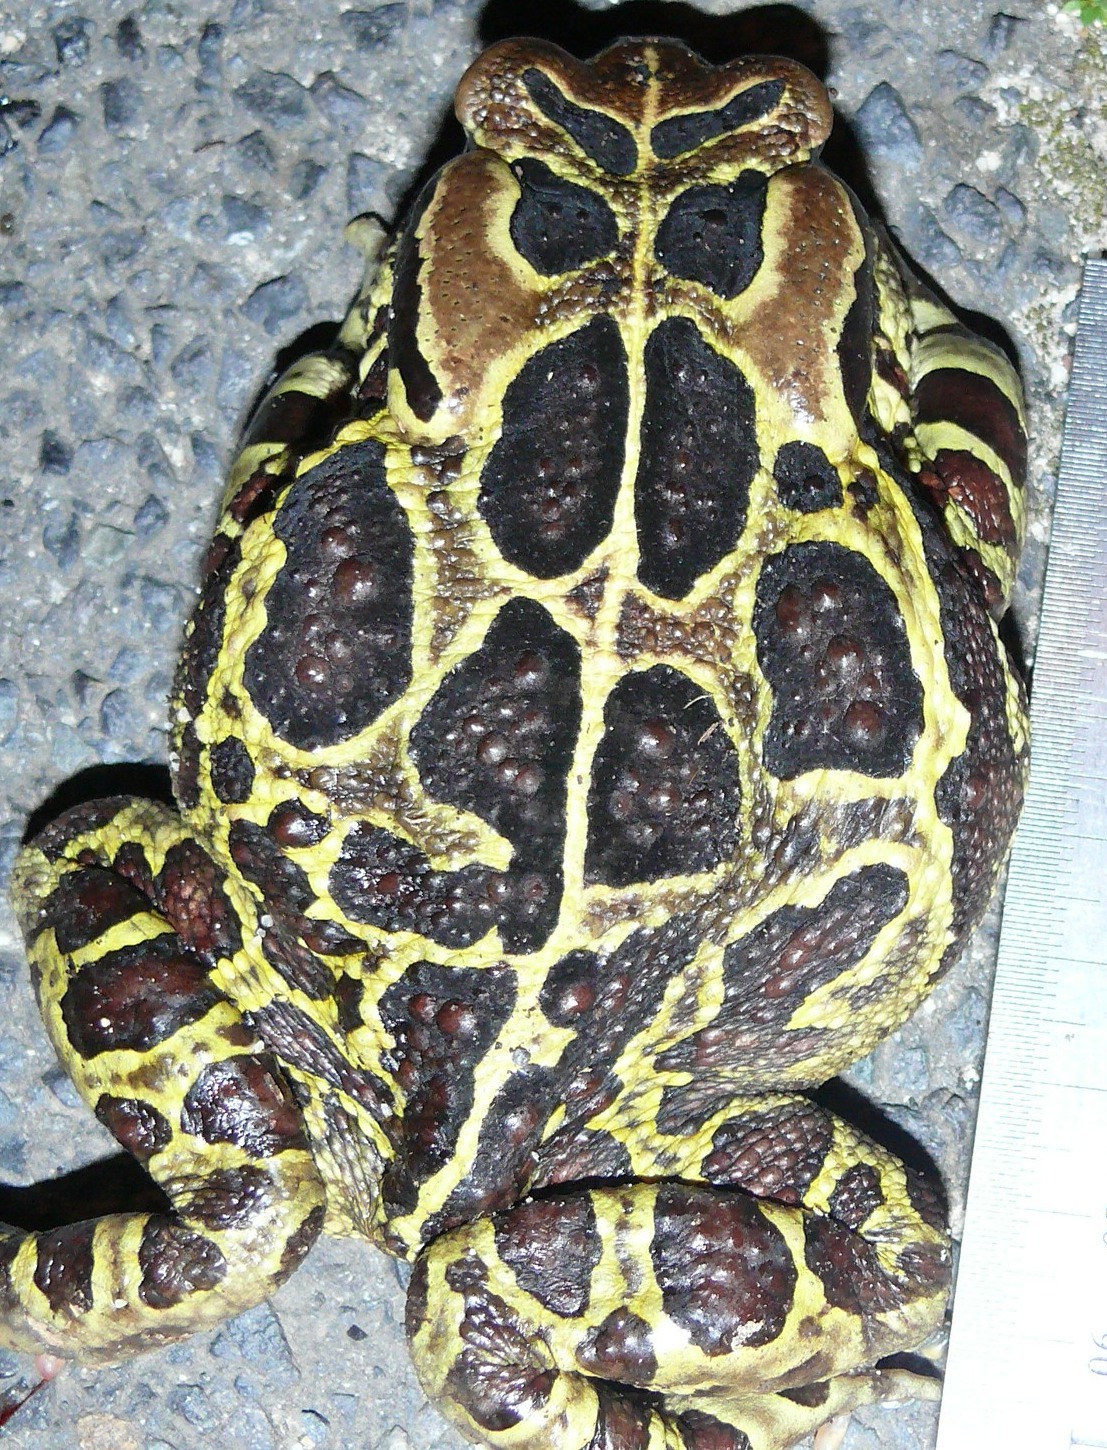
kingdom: Animalia
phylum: Chordata
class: Amphibia
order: Anura
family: Bufonidae
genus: Sclerophrys
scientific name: Sclerophrys pantherina
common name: Panther toad
